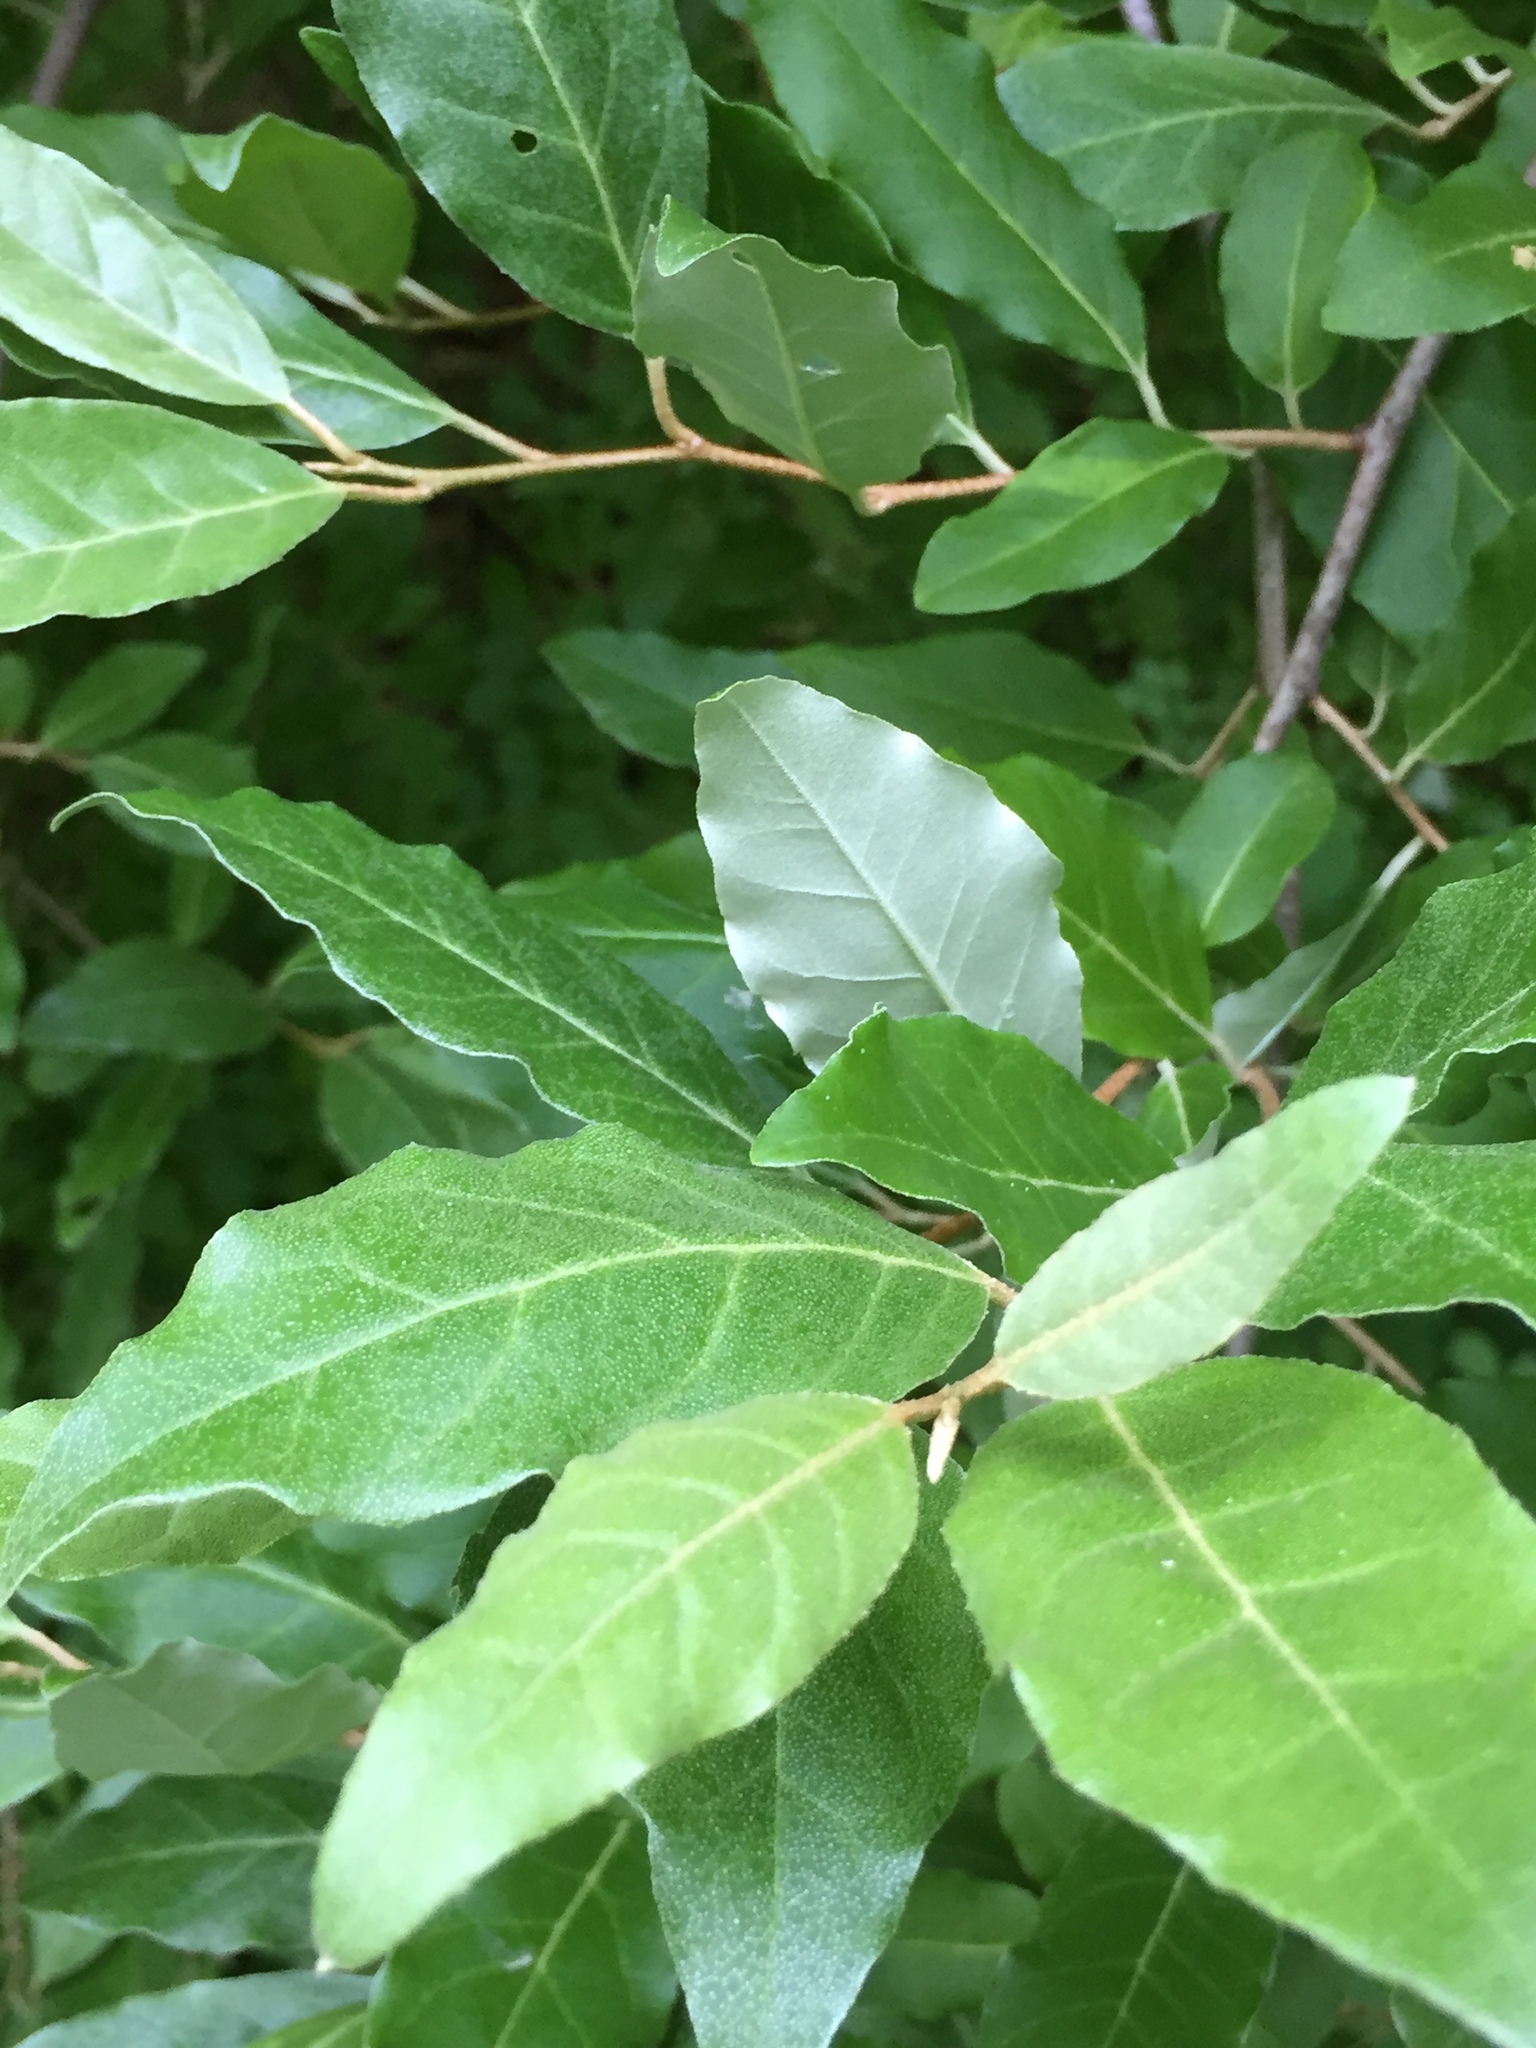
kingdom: Plantae
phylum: Tracheophyta
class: Magnoliopsida
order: Rosales
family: Elaeagnaceae
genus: Elaeagnus
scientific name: Elaeagnus umbellata
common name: Autumn olive
